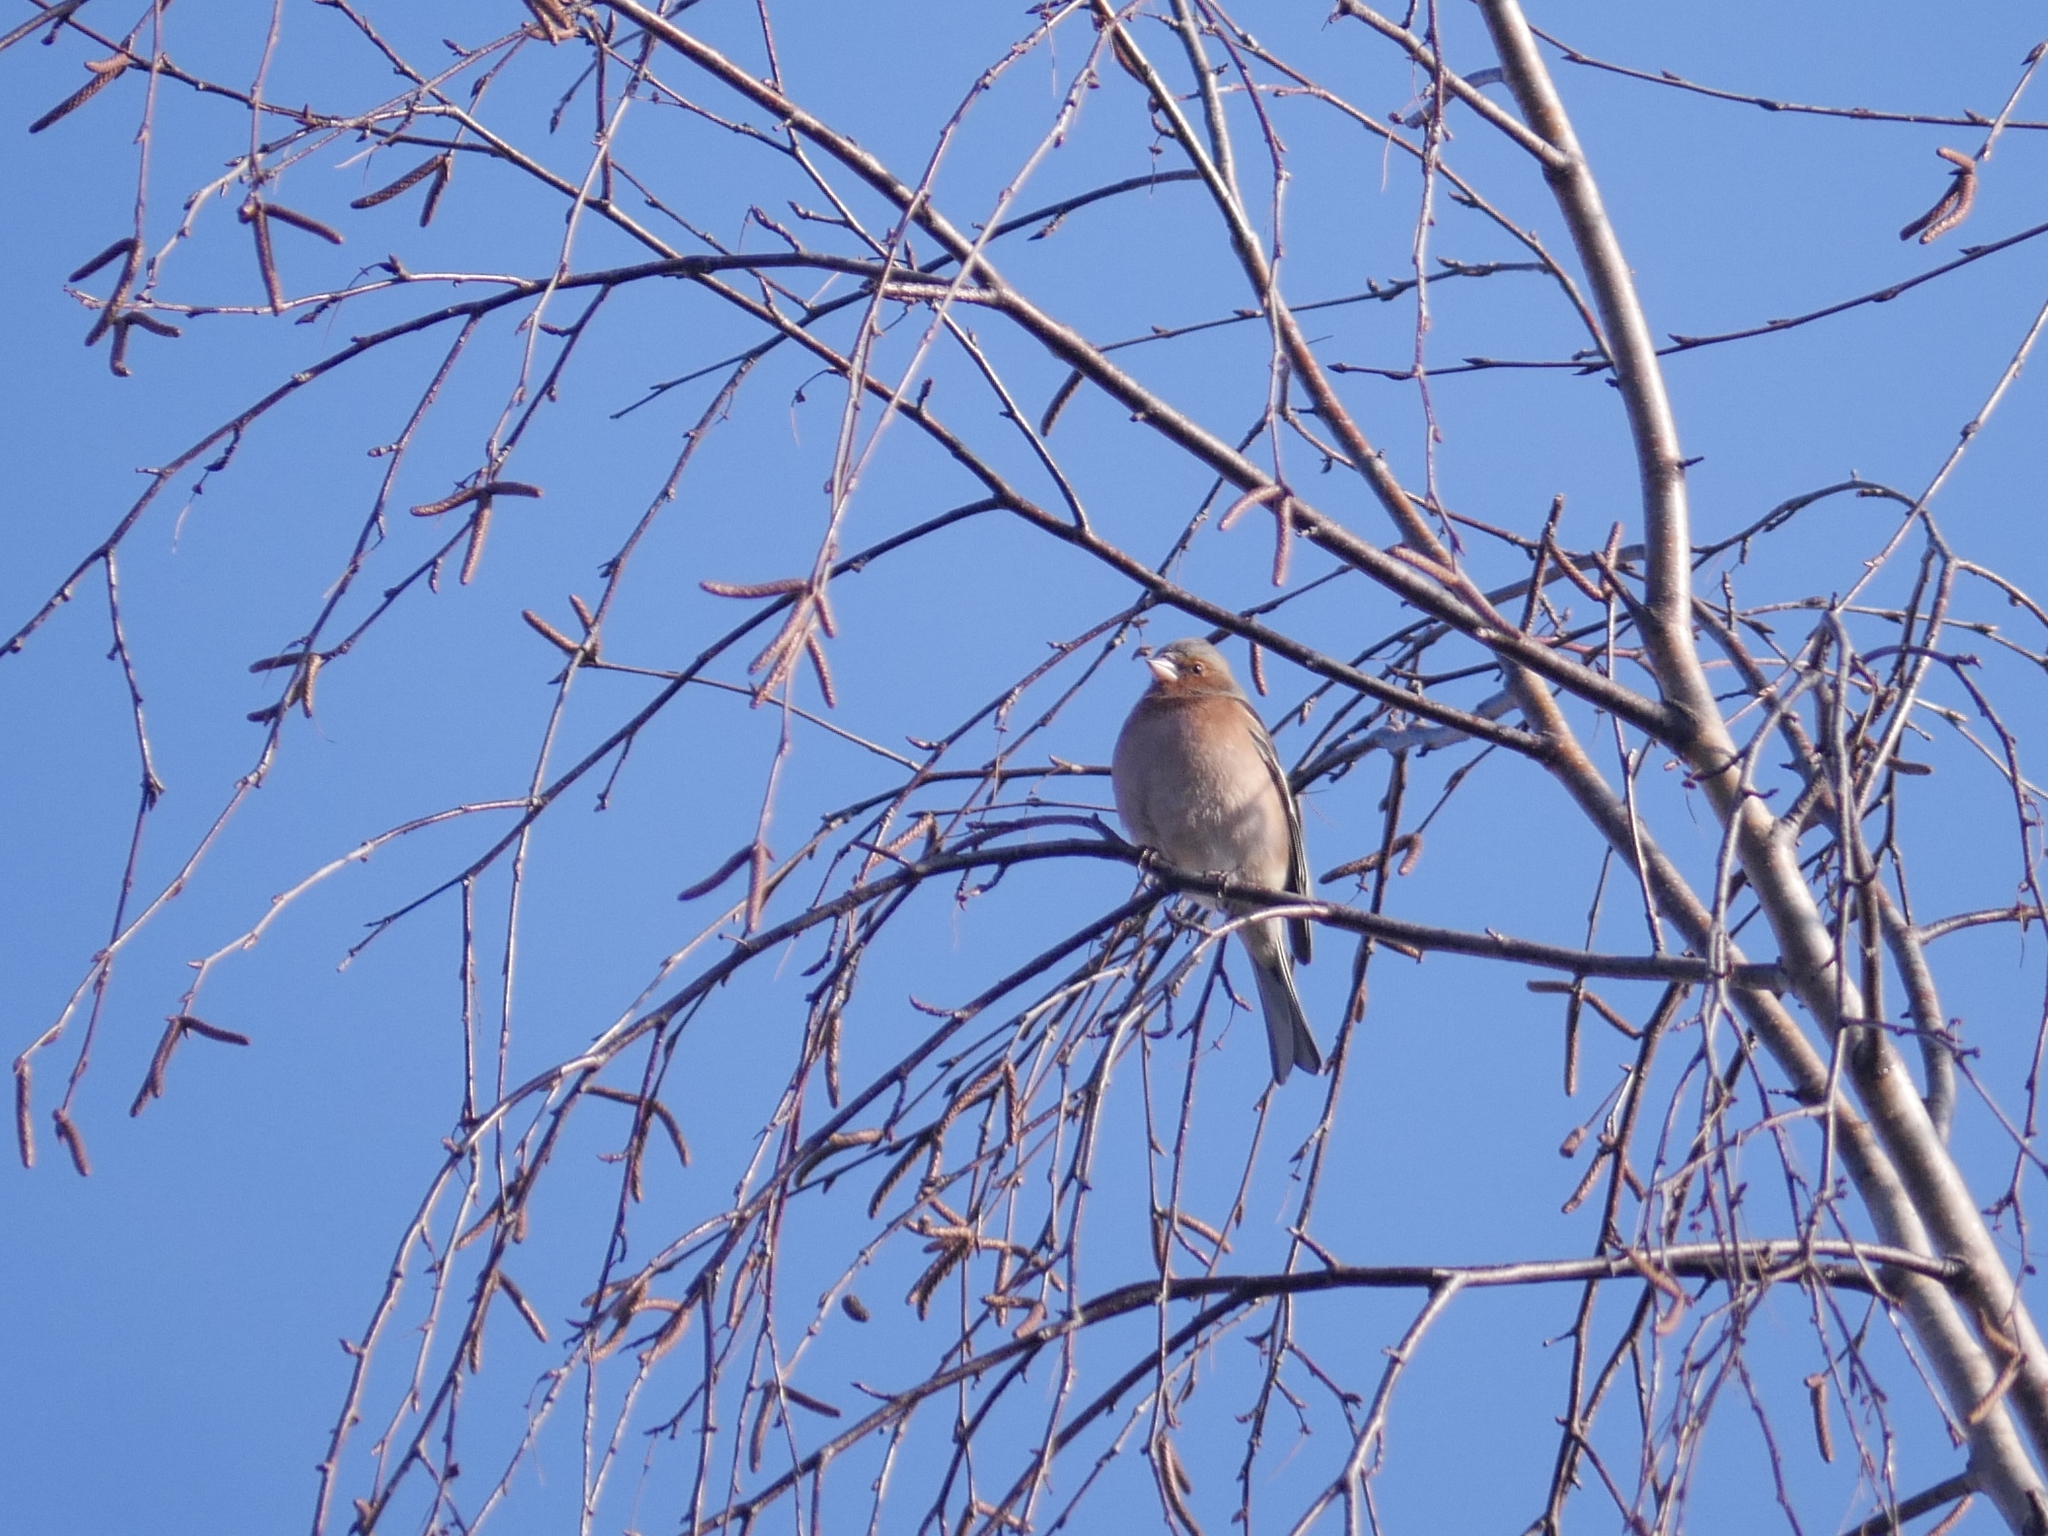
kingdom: Animalia
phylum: Chordata
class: Aves
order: Passeriformes
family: Fringillidae
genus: Fringilla
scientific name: Fringilla coelebs
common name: Common chaffinch
